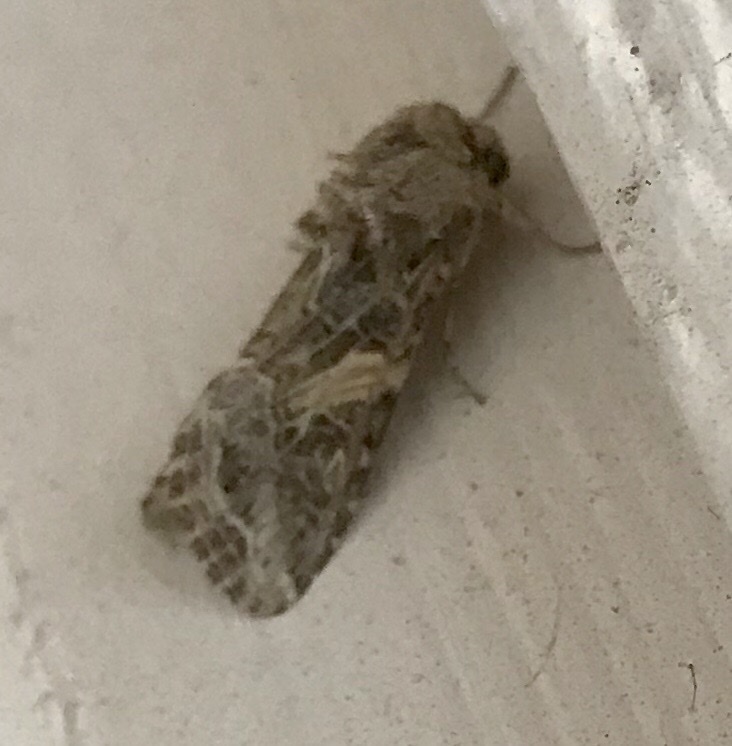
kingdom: Animalia
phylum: Arthropoda
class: Insecta
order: Lepidoptera
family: Noctuidae
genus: Spodoptera
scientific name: Spodoptera praefica
